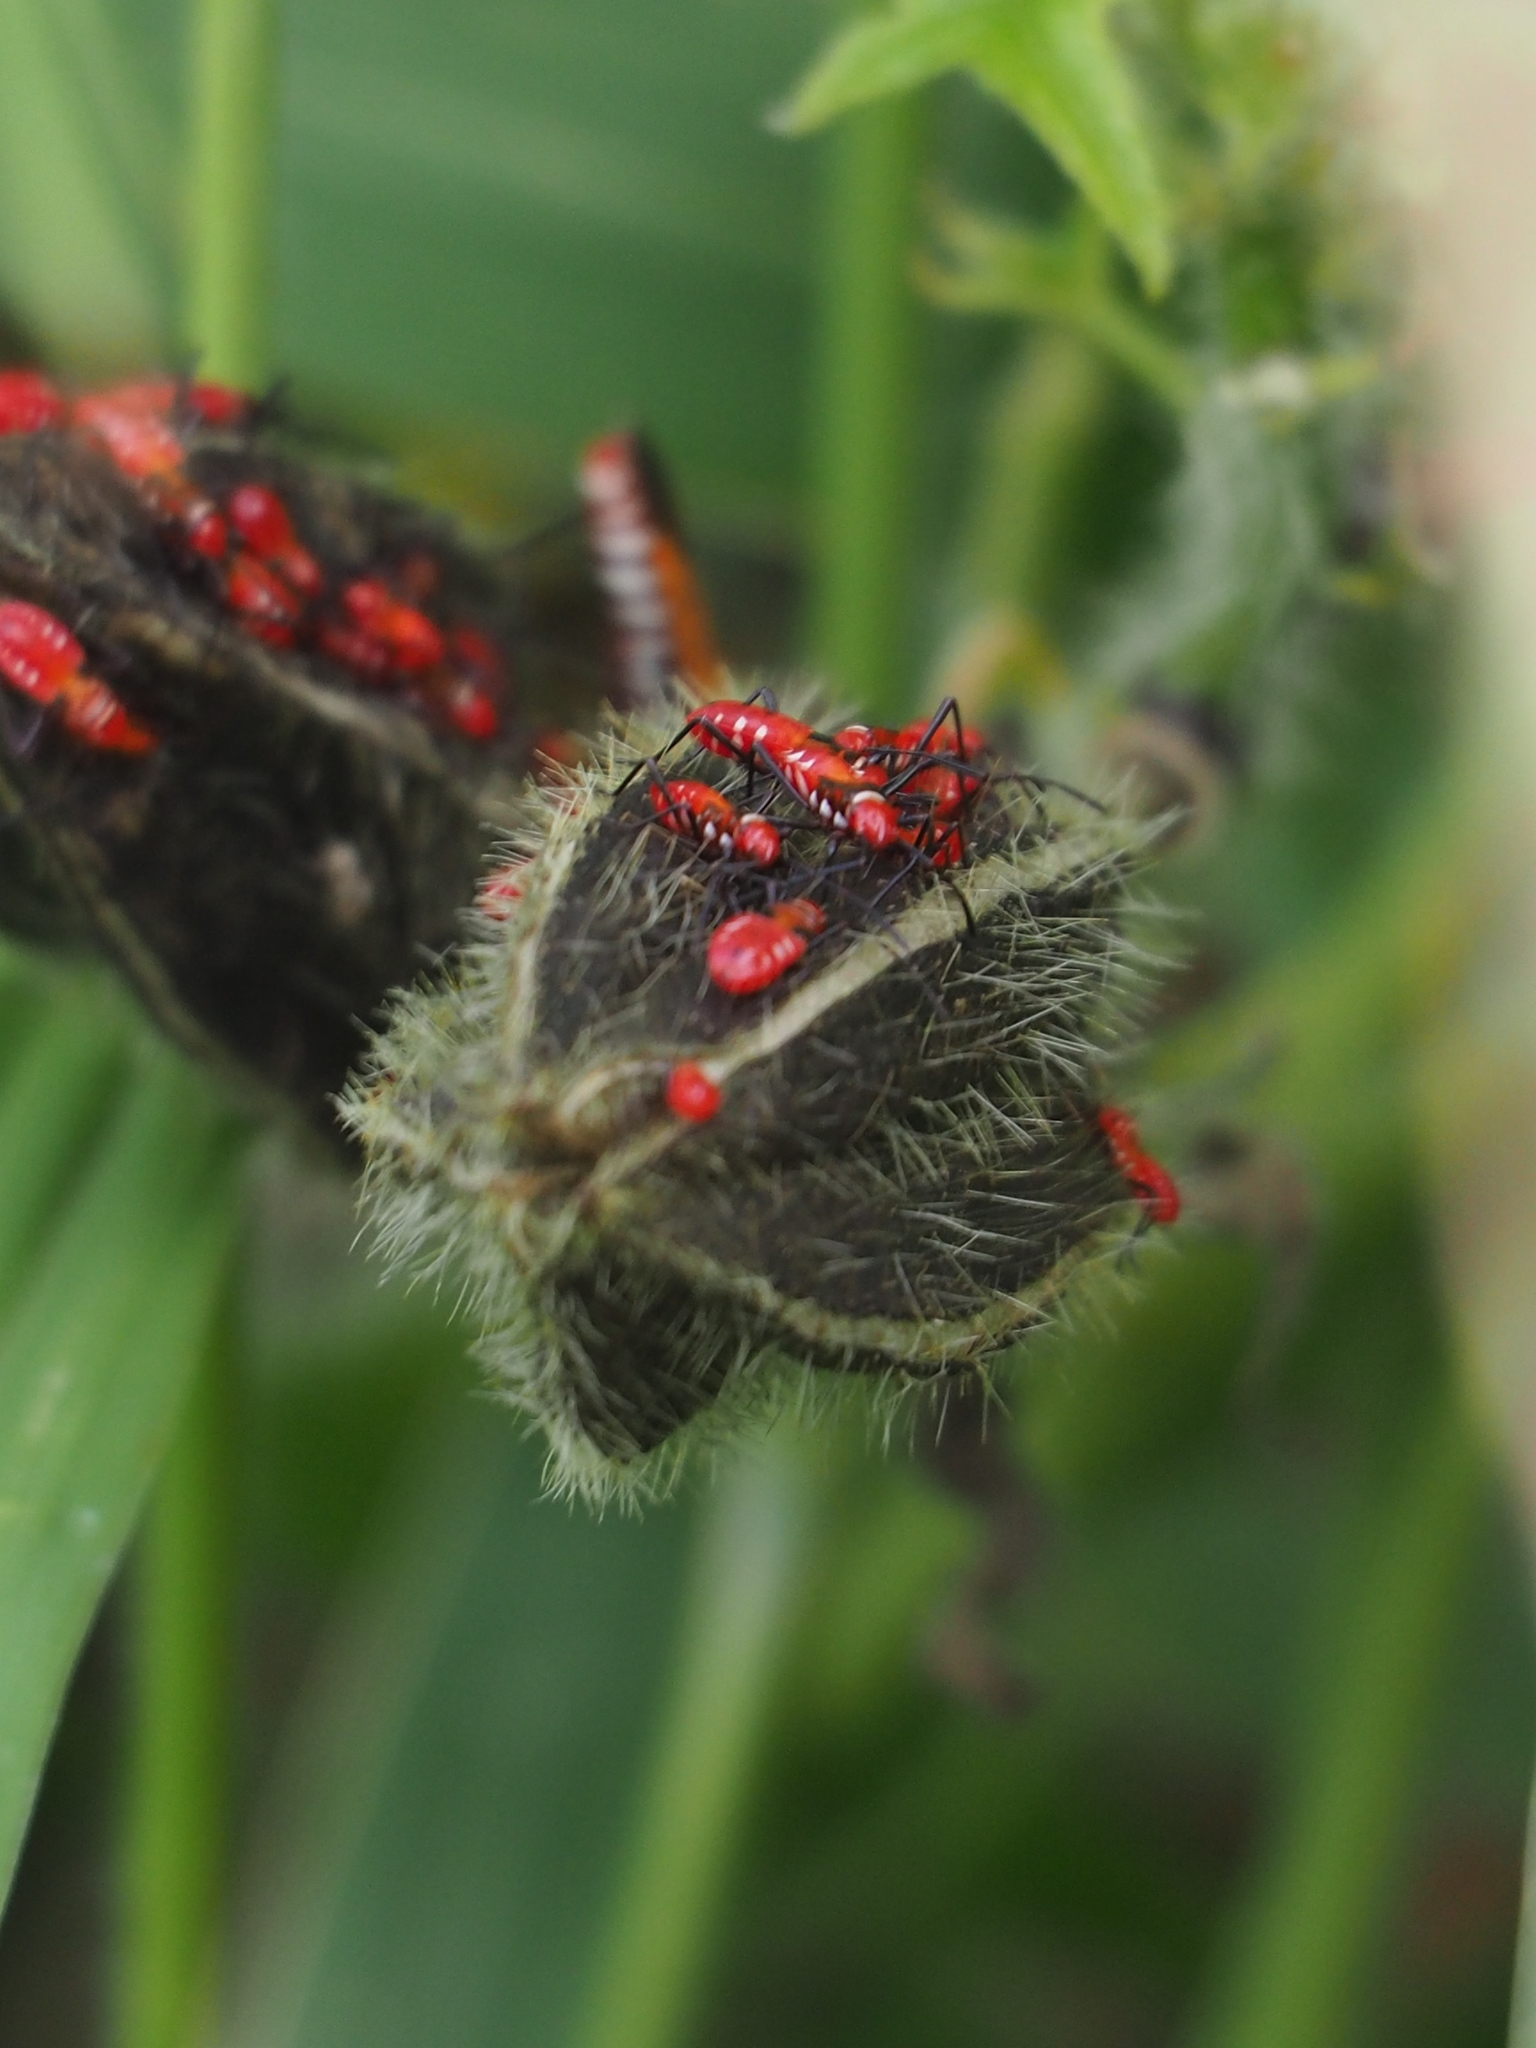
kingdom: Animalia
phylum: Arthropoda
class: Insecta
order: Hemiptera
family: Pyrrhocoridae
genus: Dysdercus
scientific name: Dysdercus cingulatus
